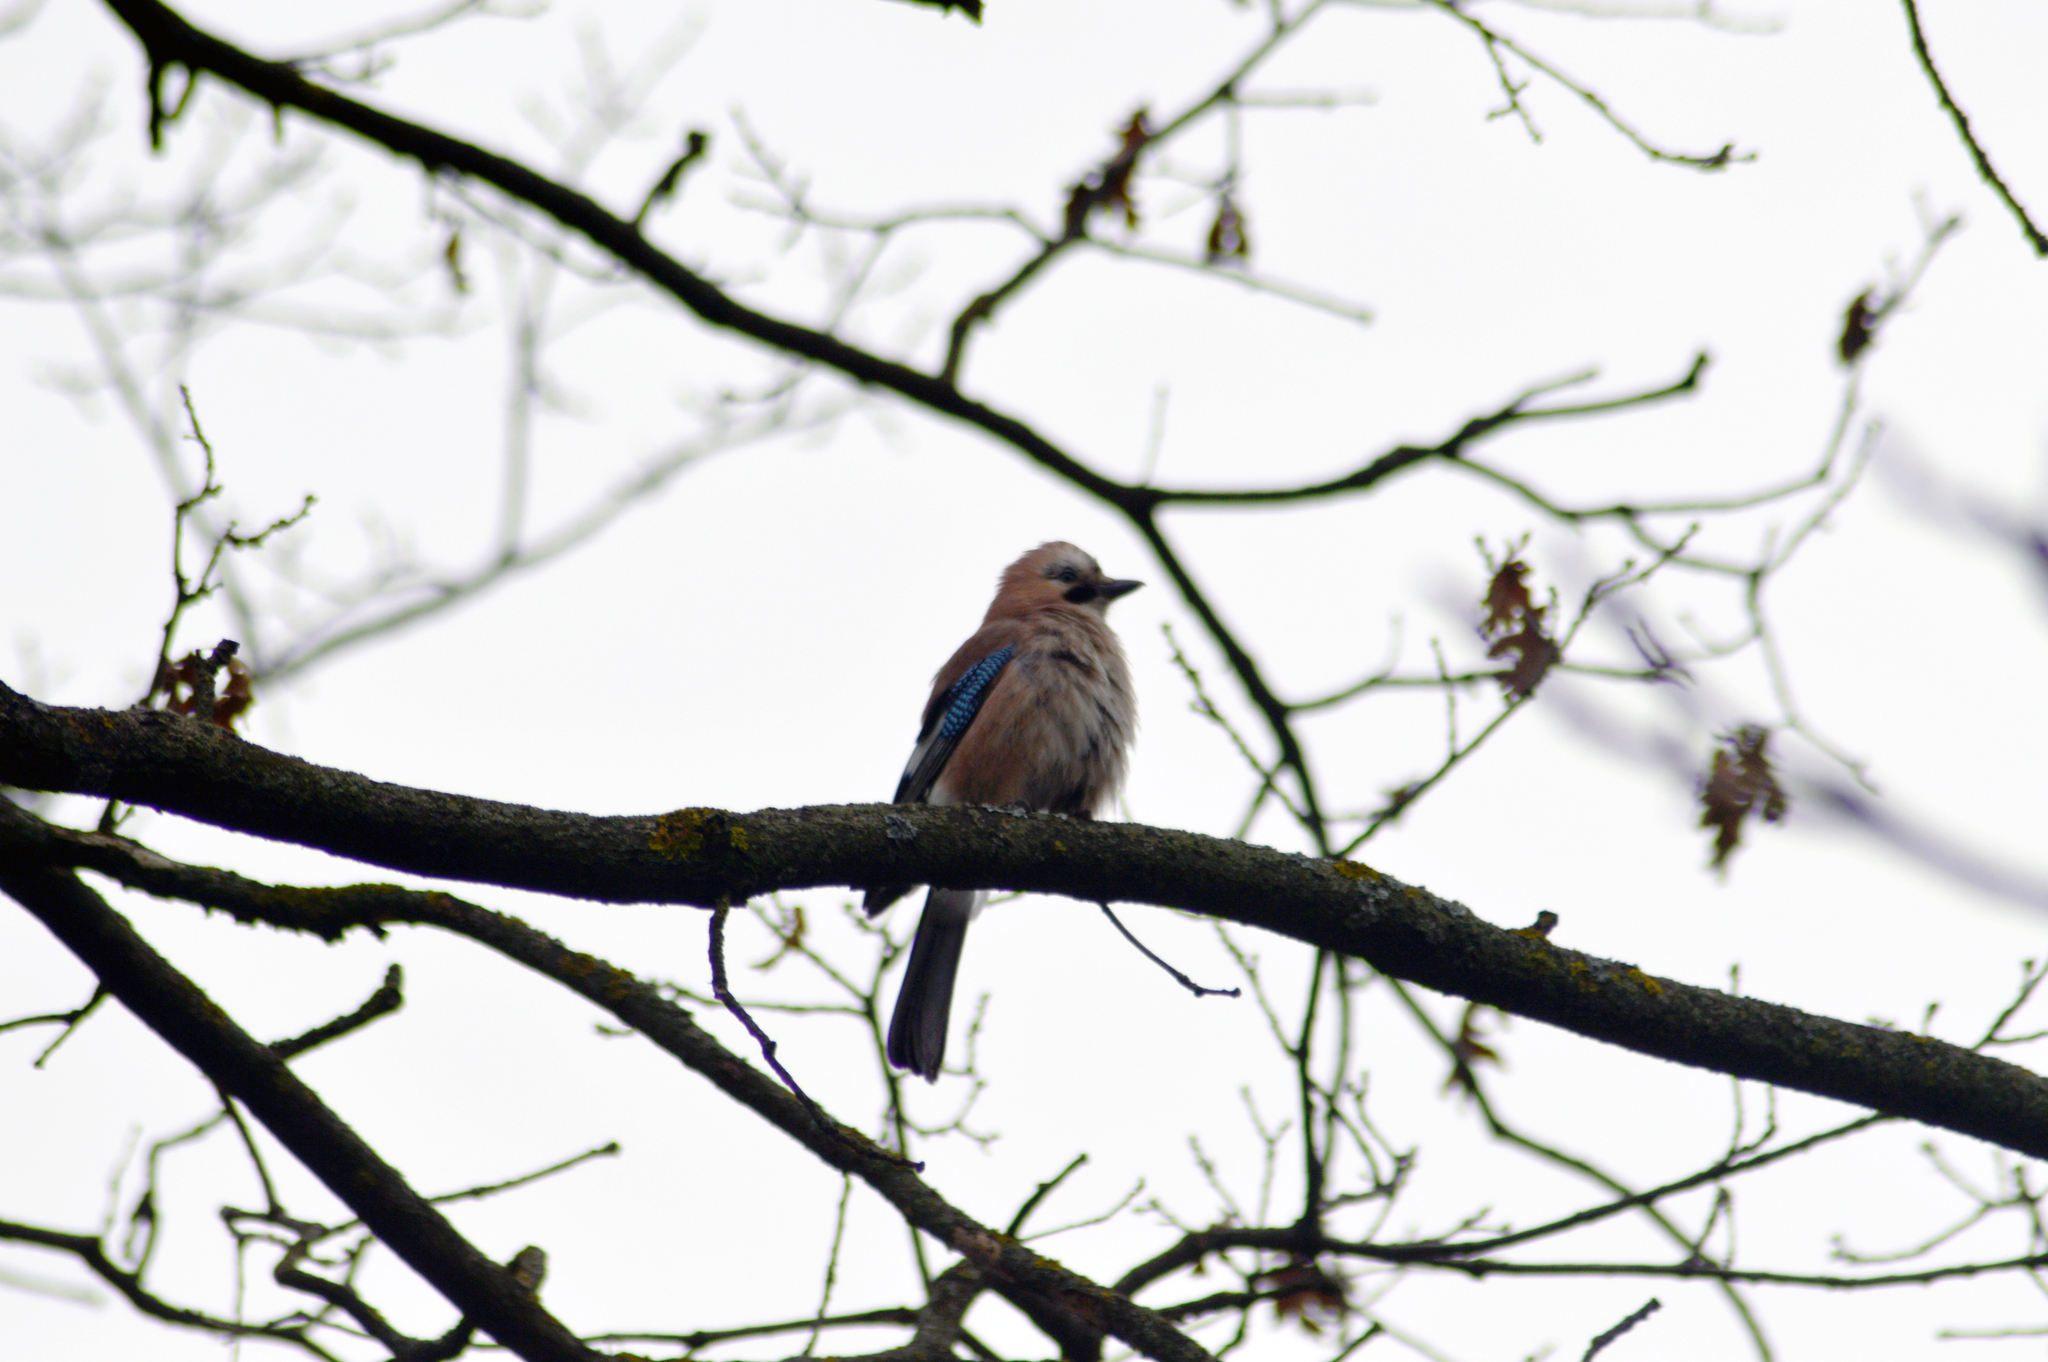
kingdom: Animalia
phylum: Chordata
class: Aves
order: Passeriformes
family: Corvidae
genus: Garrulus
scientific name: Garrulus glandarius
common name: Eurasian jay
